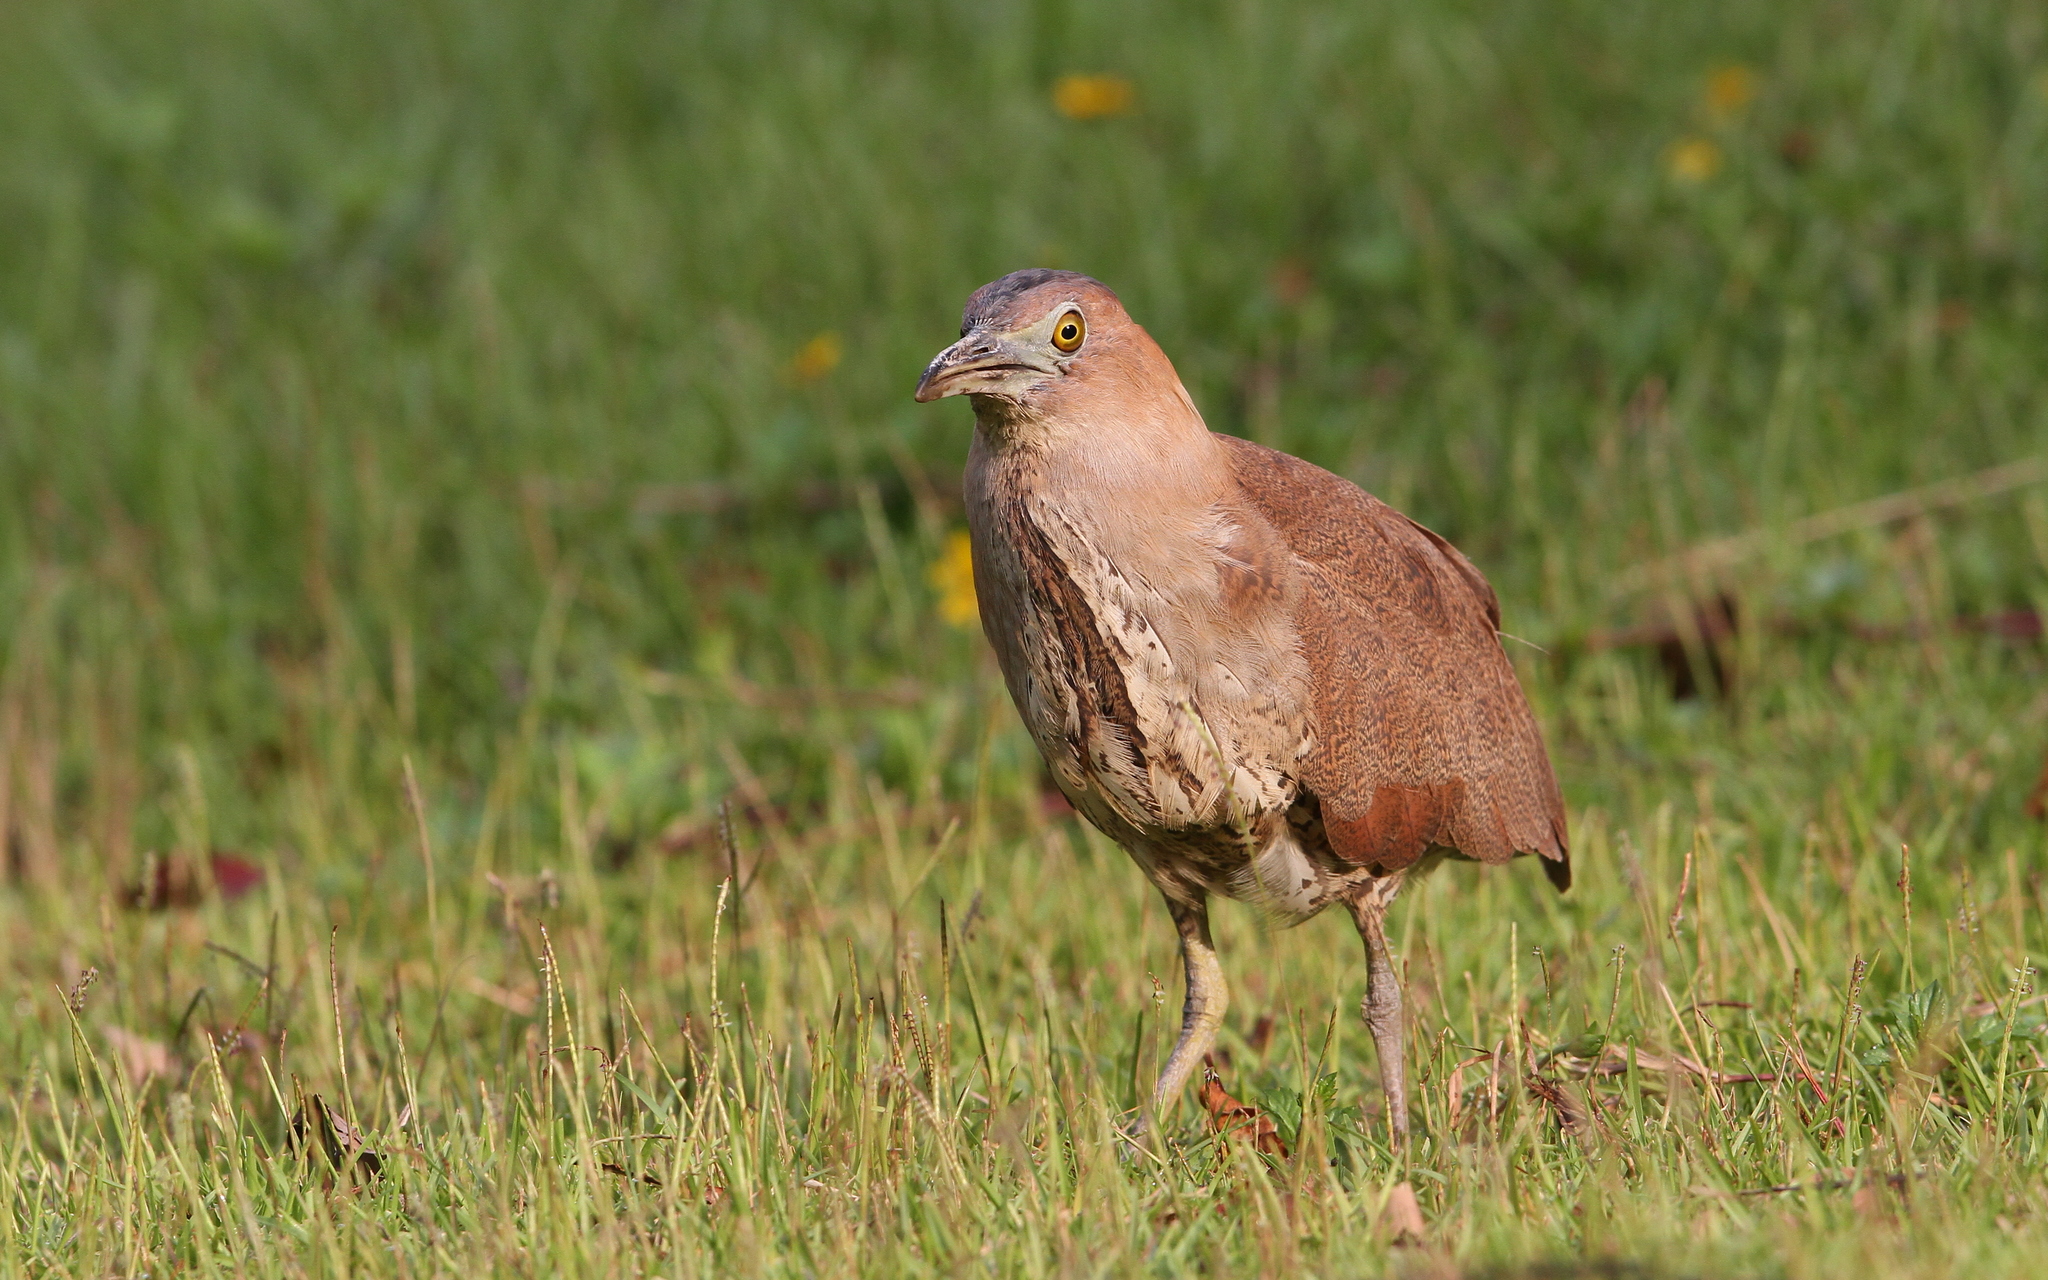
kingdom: Animalia
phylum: Chordata
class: Aves
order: Pelecaniformes
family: Ardeidae
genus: Gorsachius
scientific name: Gorsachius melanolophus
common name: Malayan night heron
